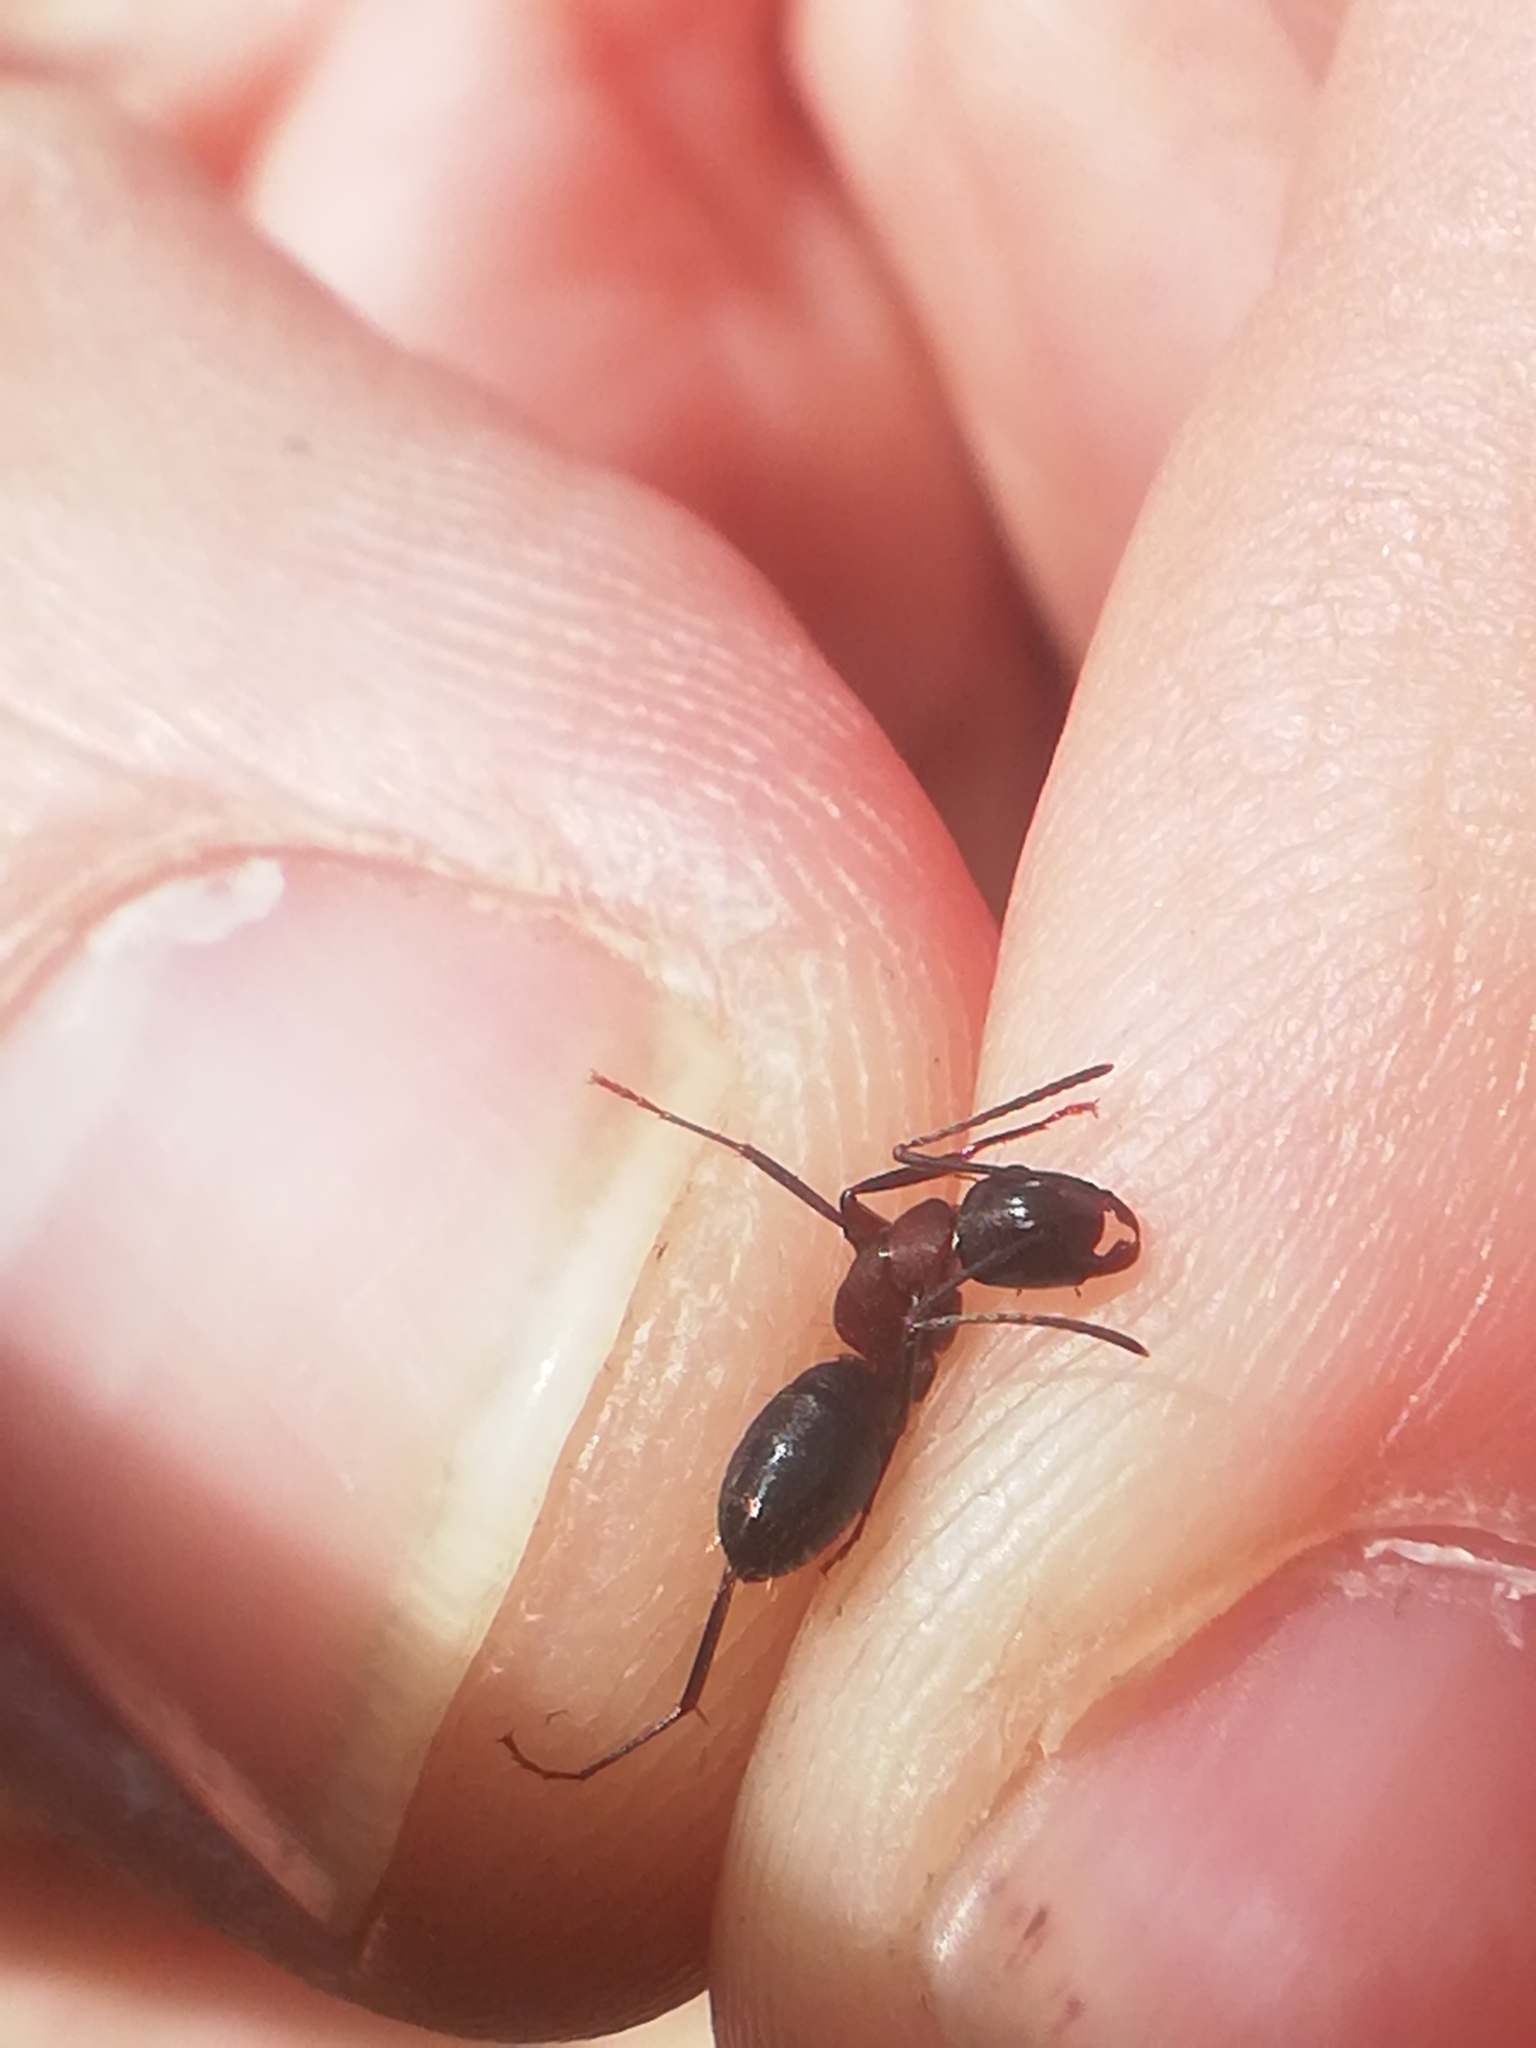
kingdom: Animalia
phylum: Arthropoda
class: Insecta
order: Hymenoptera
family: Formicidae
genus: Camponotus
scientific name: Camponotus ligniperdus
